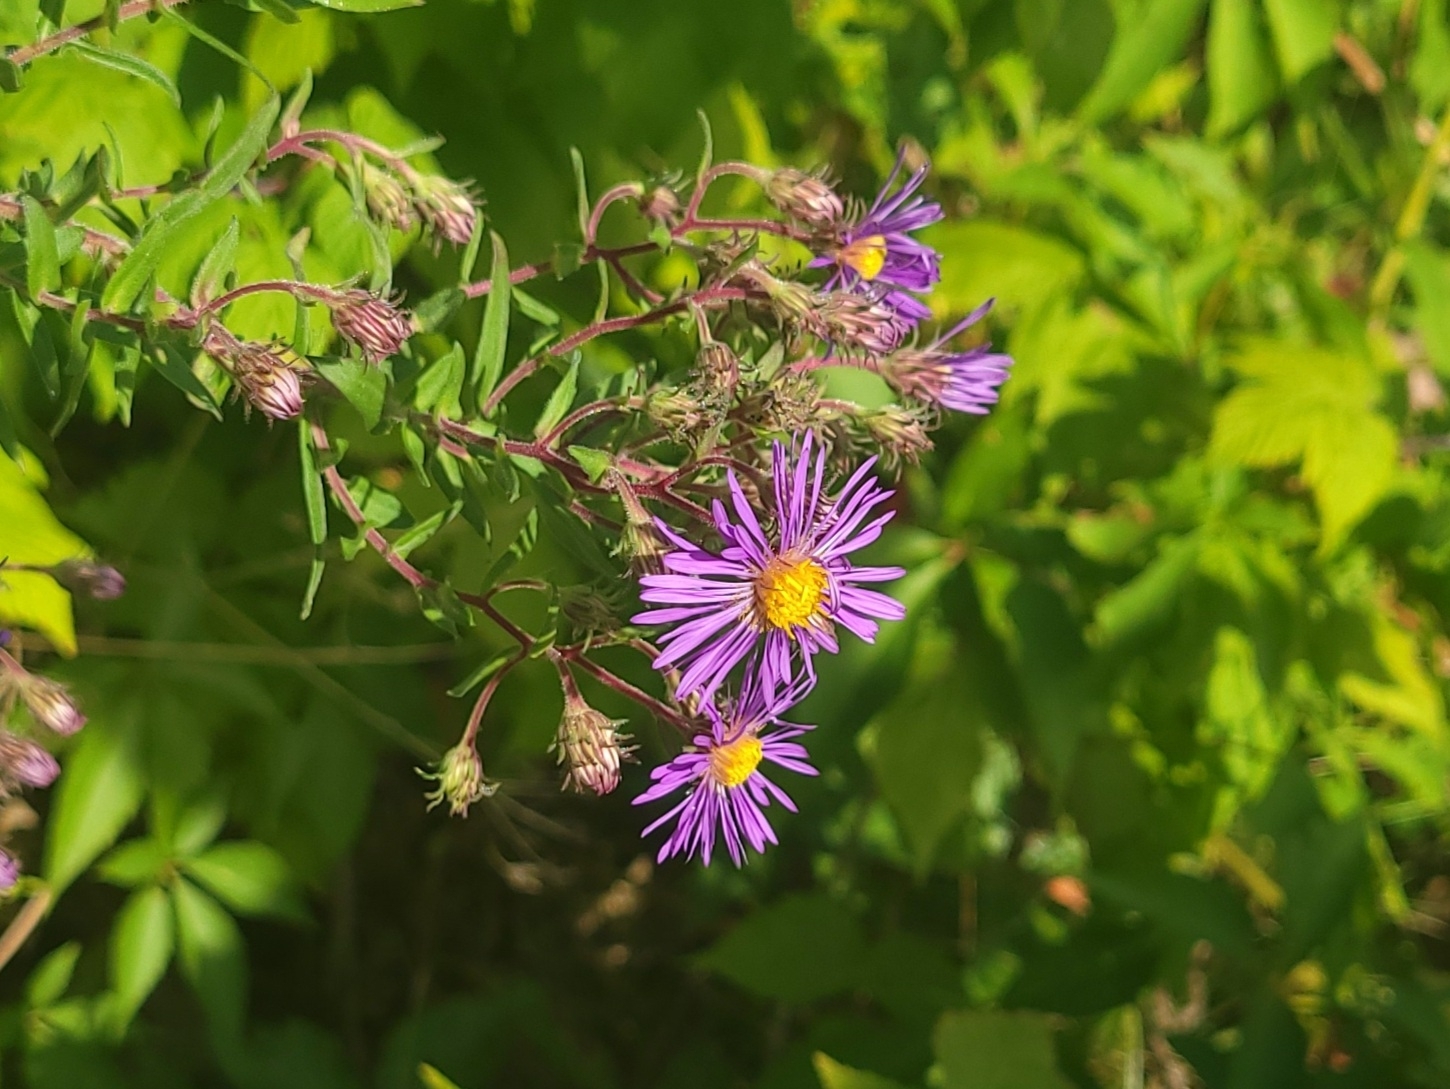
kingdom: Plantae
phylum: Tracheophyta
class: Magnoliopsida
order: Asterales
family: Asteraceae
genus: Symphyotrichum
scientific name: Symphyotrichum novae-angliae
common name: Michaelmas daisy
